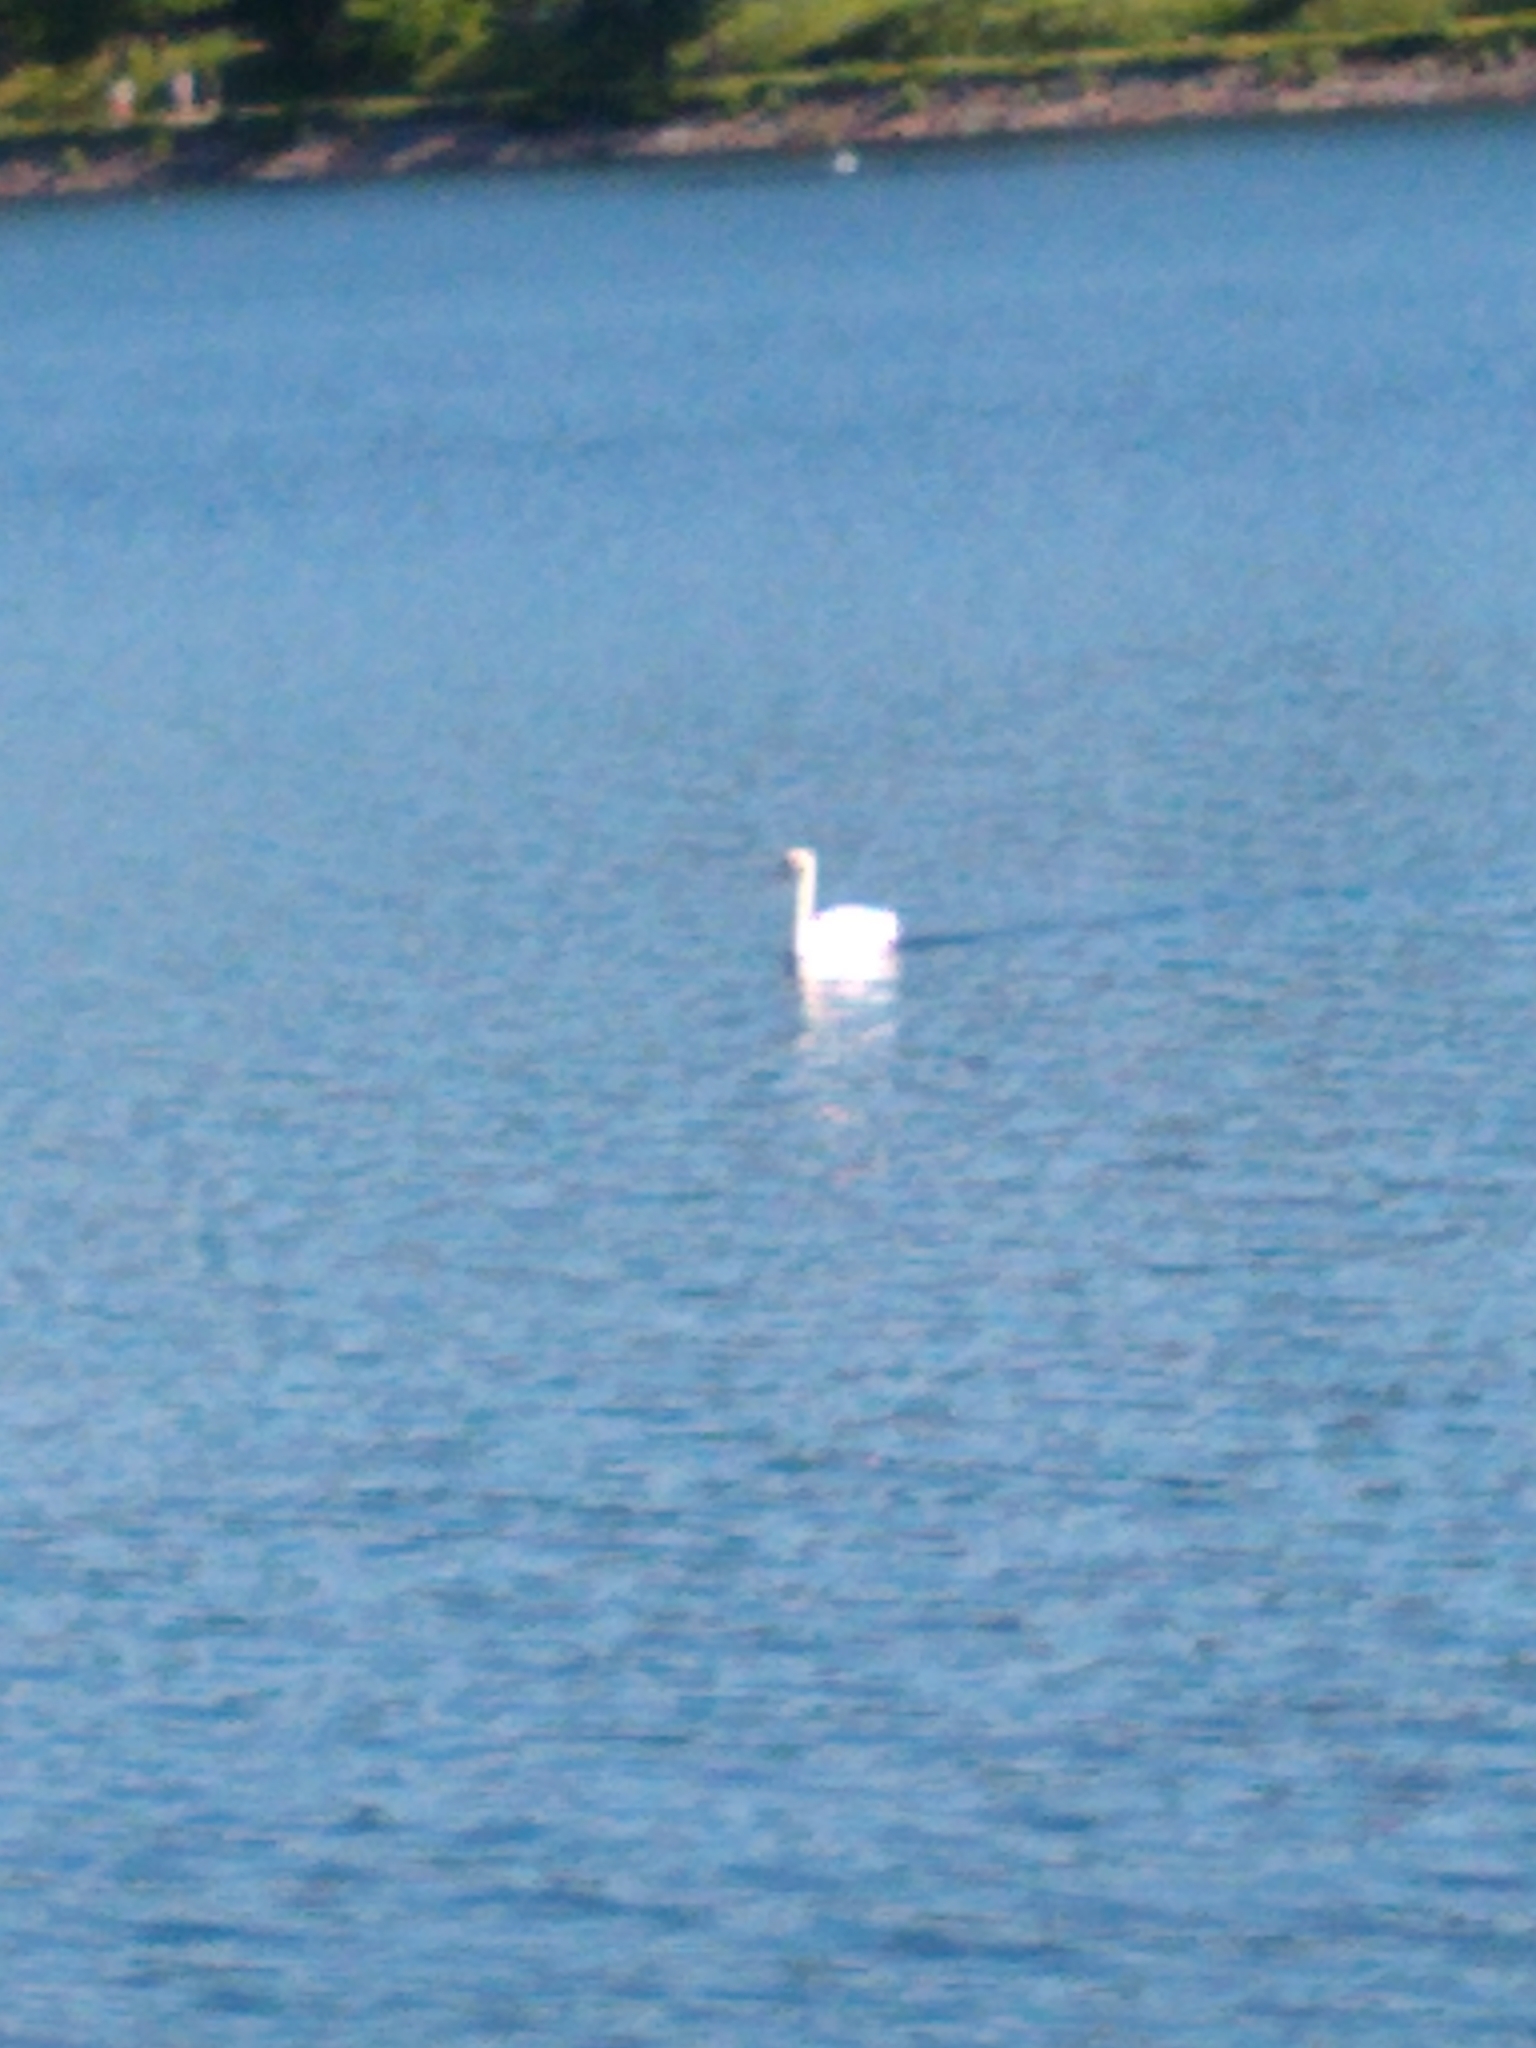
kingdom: Animalia
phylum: Chordata
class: Aves
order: Anseriformes
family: Anatidae
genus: Cygnus
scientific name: Cygnus olor
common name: Mute swan
